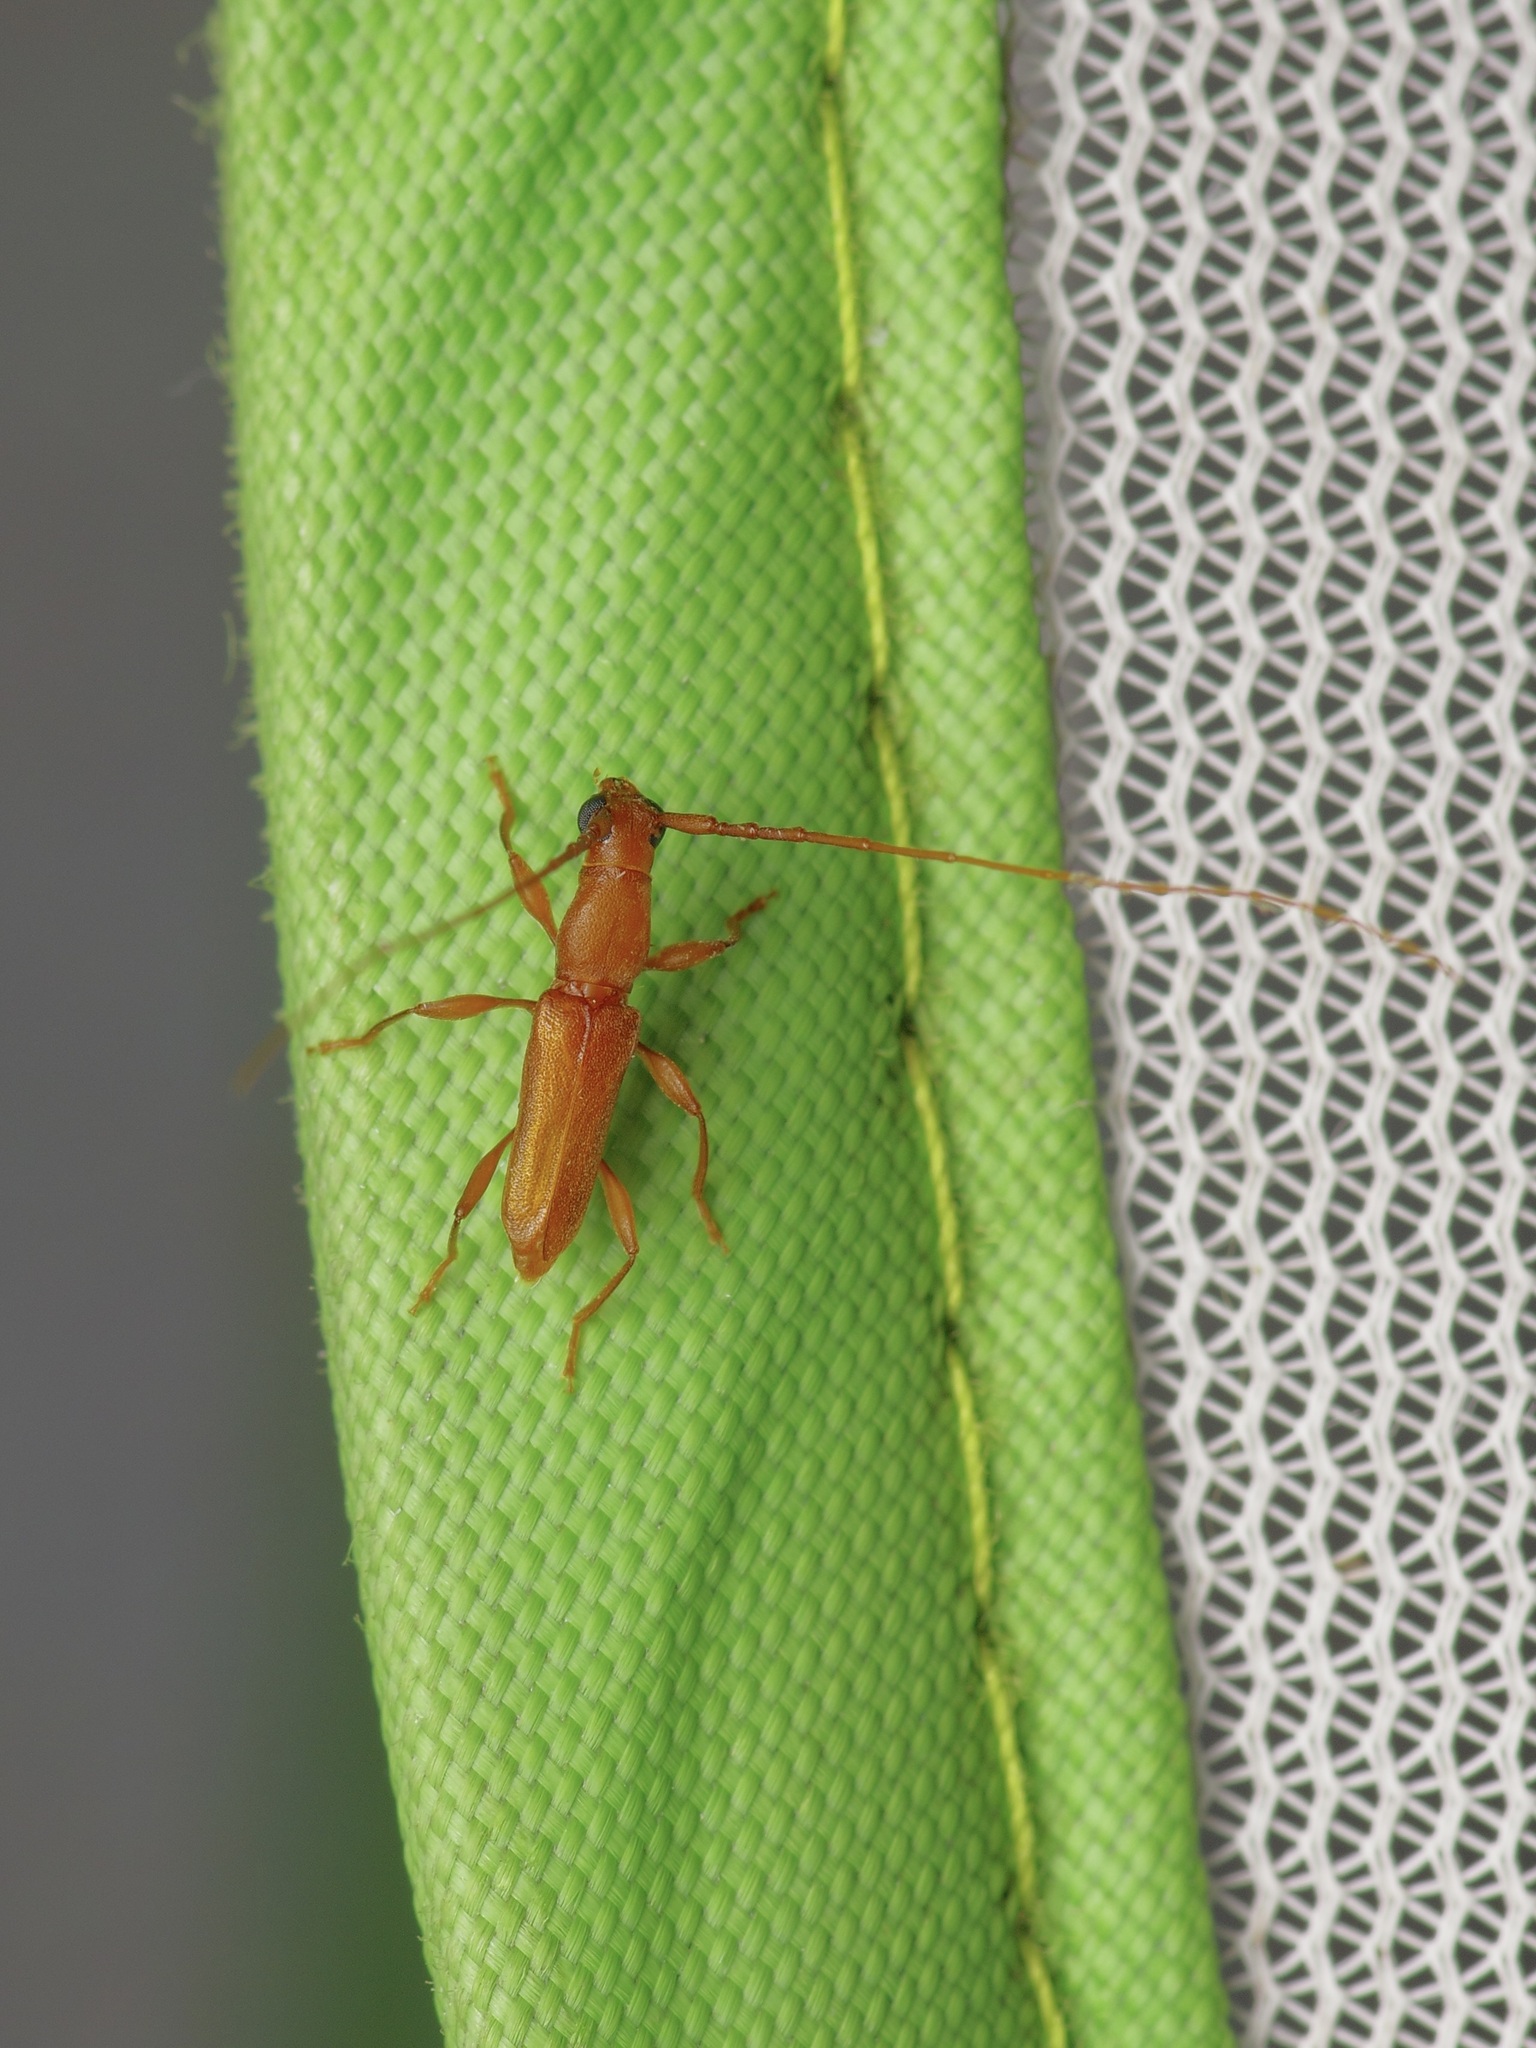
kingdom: Animalia
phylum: Arthropoda
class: Insecta
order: Coleoptera
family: Cerambycidae
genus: Hypexilis
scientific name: Hypexilis pallida
